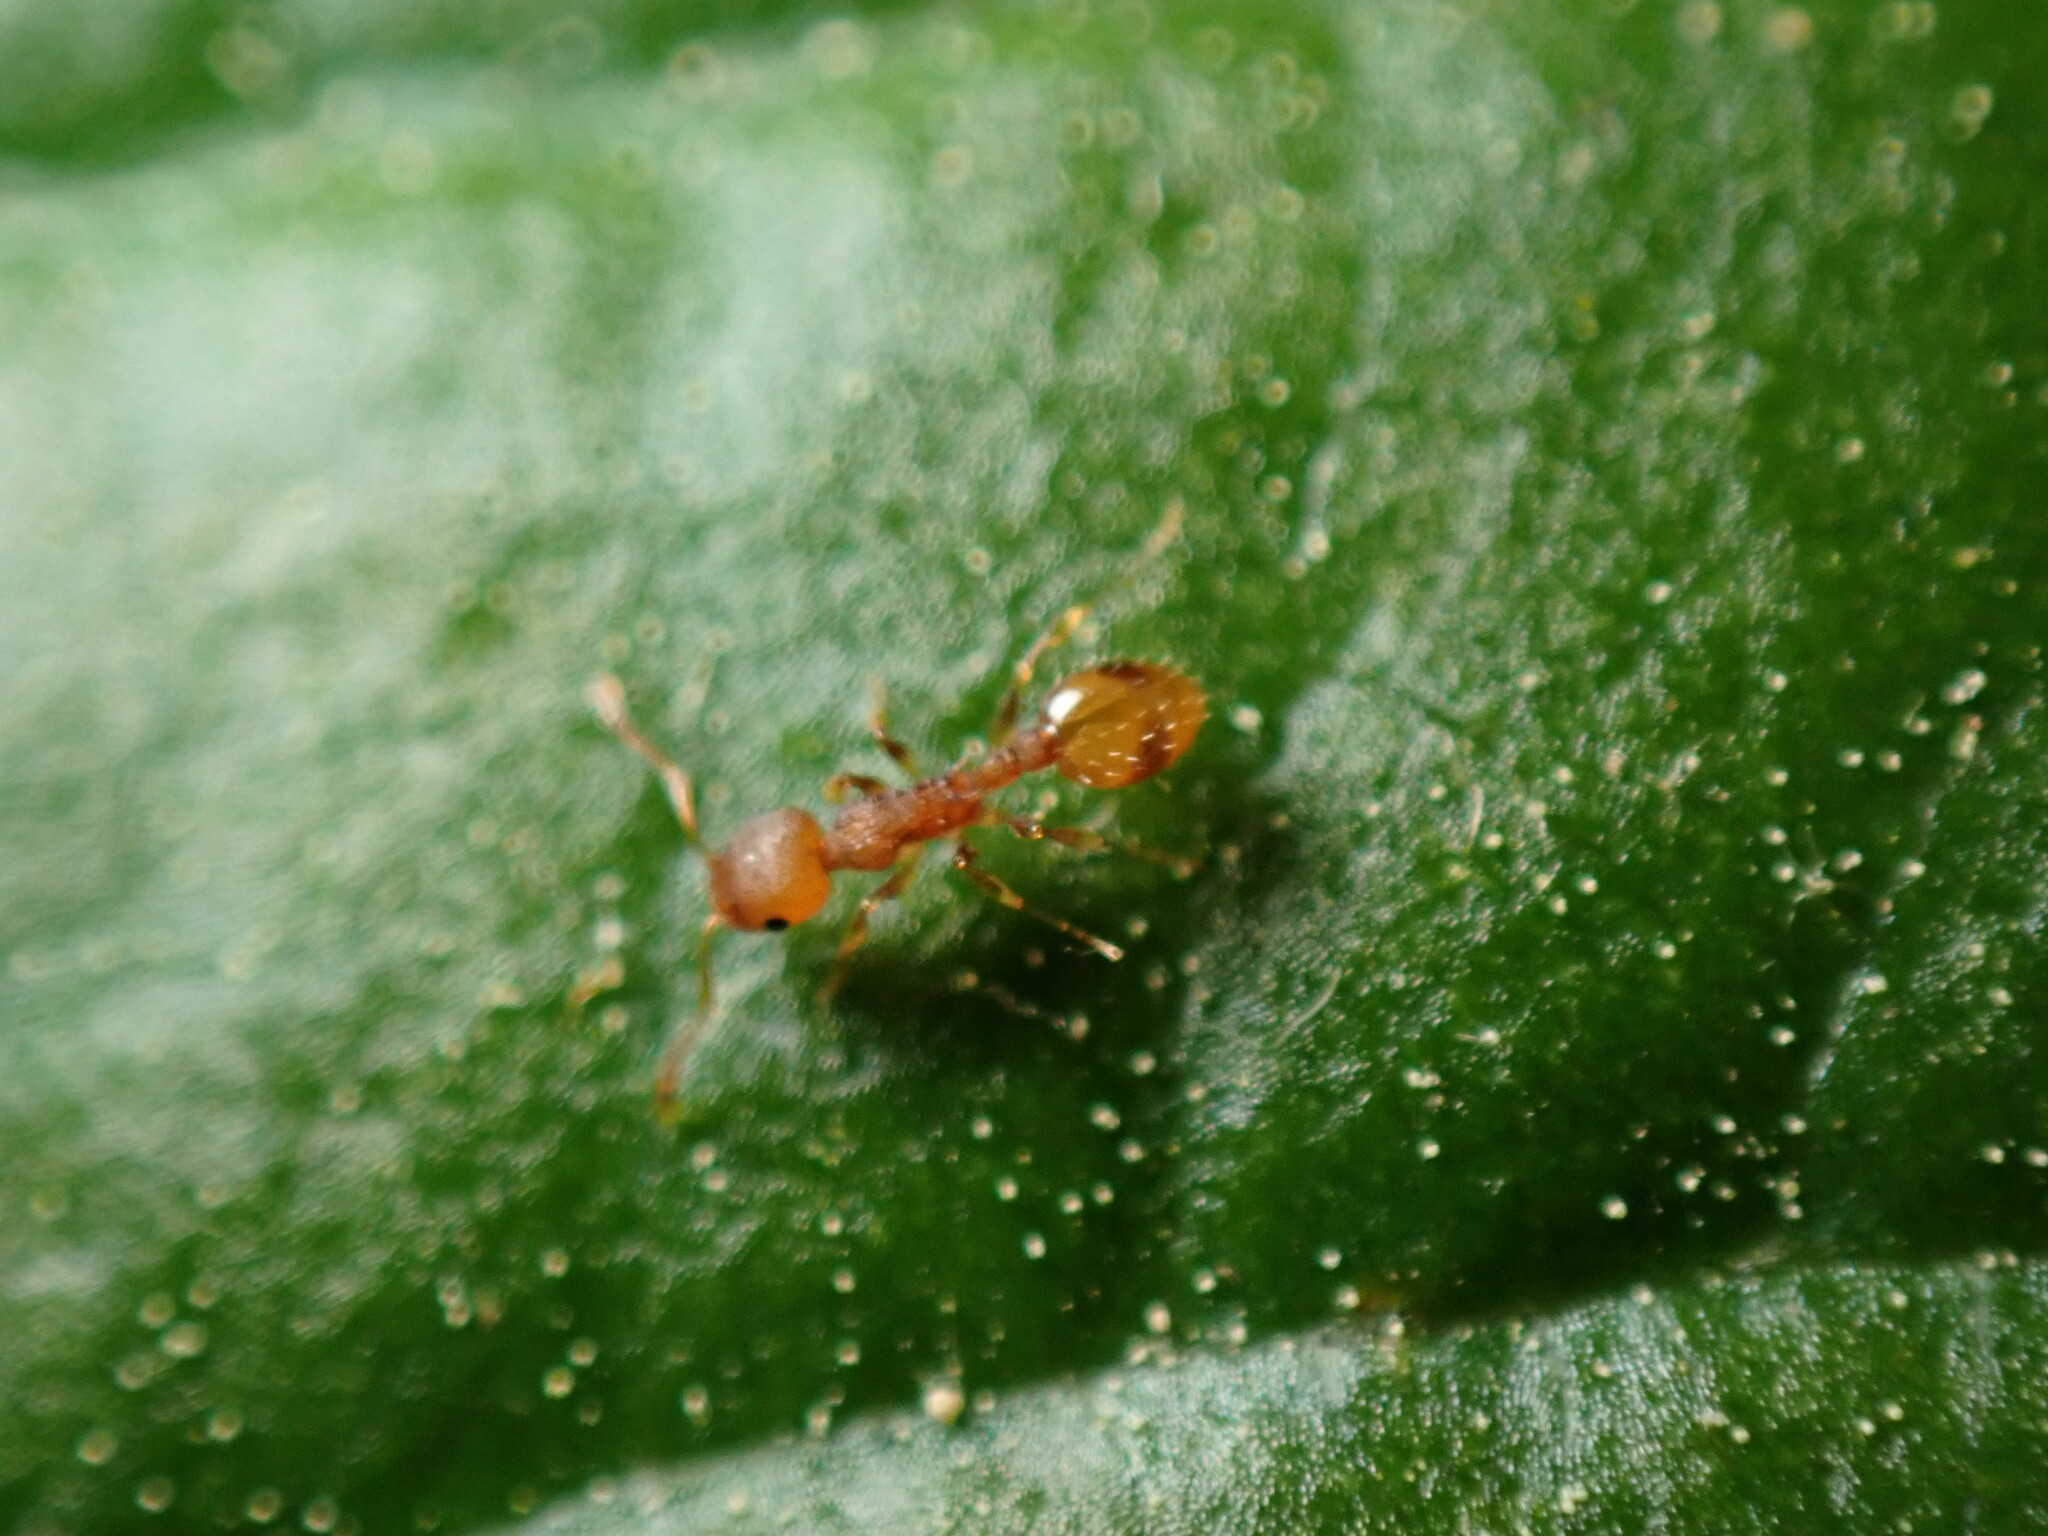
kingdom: Animalia
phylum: Arthropoda
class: Insecta
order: Hymenoptera
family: Formicidae
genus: Temnothorax
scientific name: Temnothorax curvispinosus
